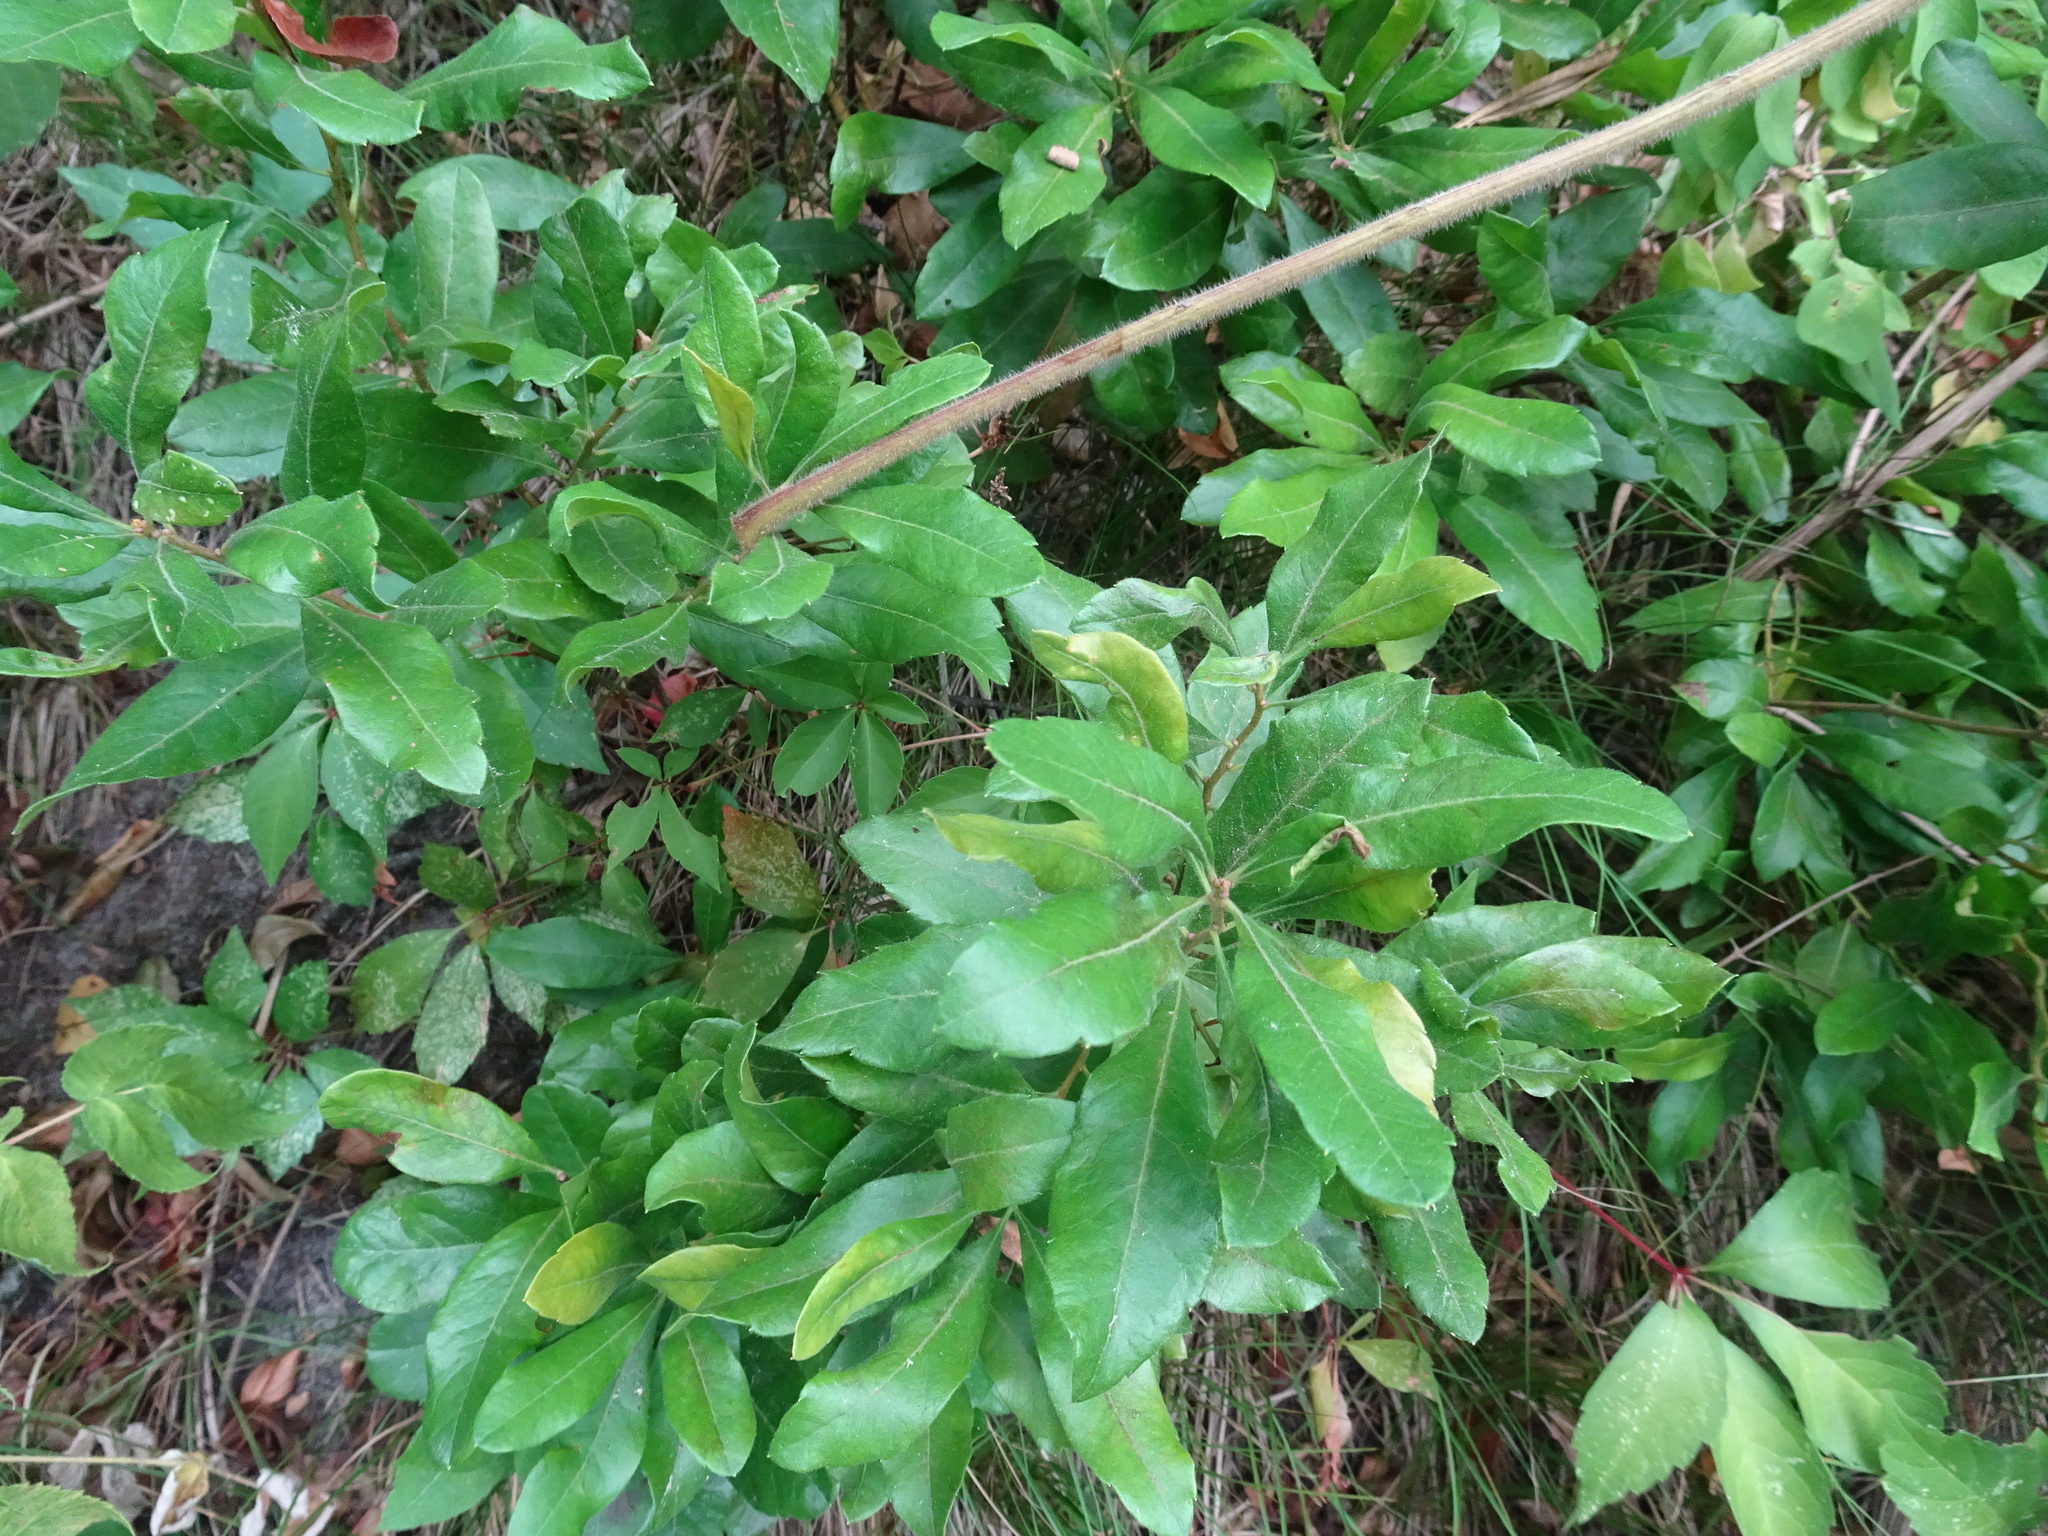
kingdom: Plantae
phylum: Tracheophyta
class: Magnoliopsida
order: Fagales
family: Myricaceae
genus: Morella
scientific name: Morella pensylvanica
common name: Northern bayberry
